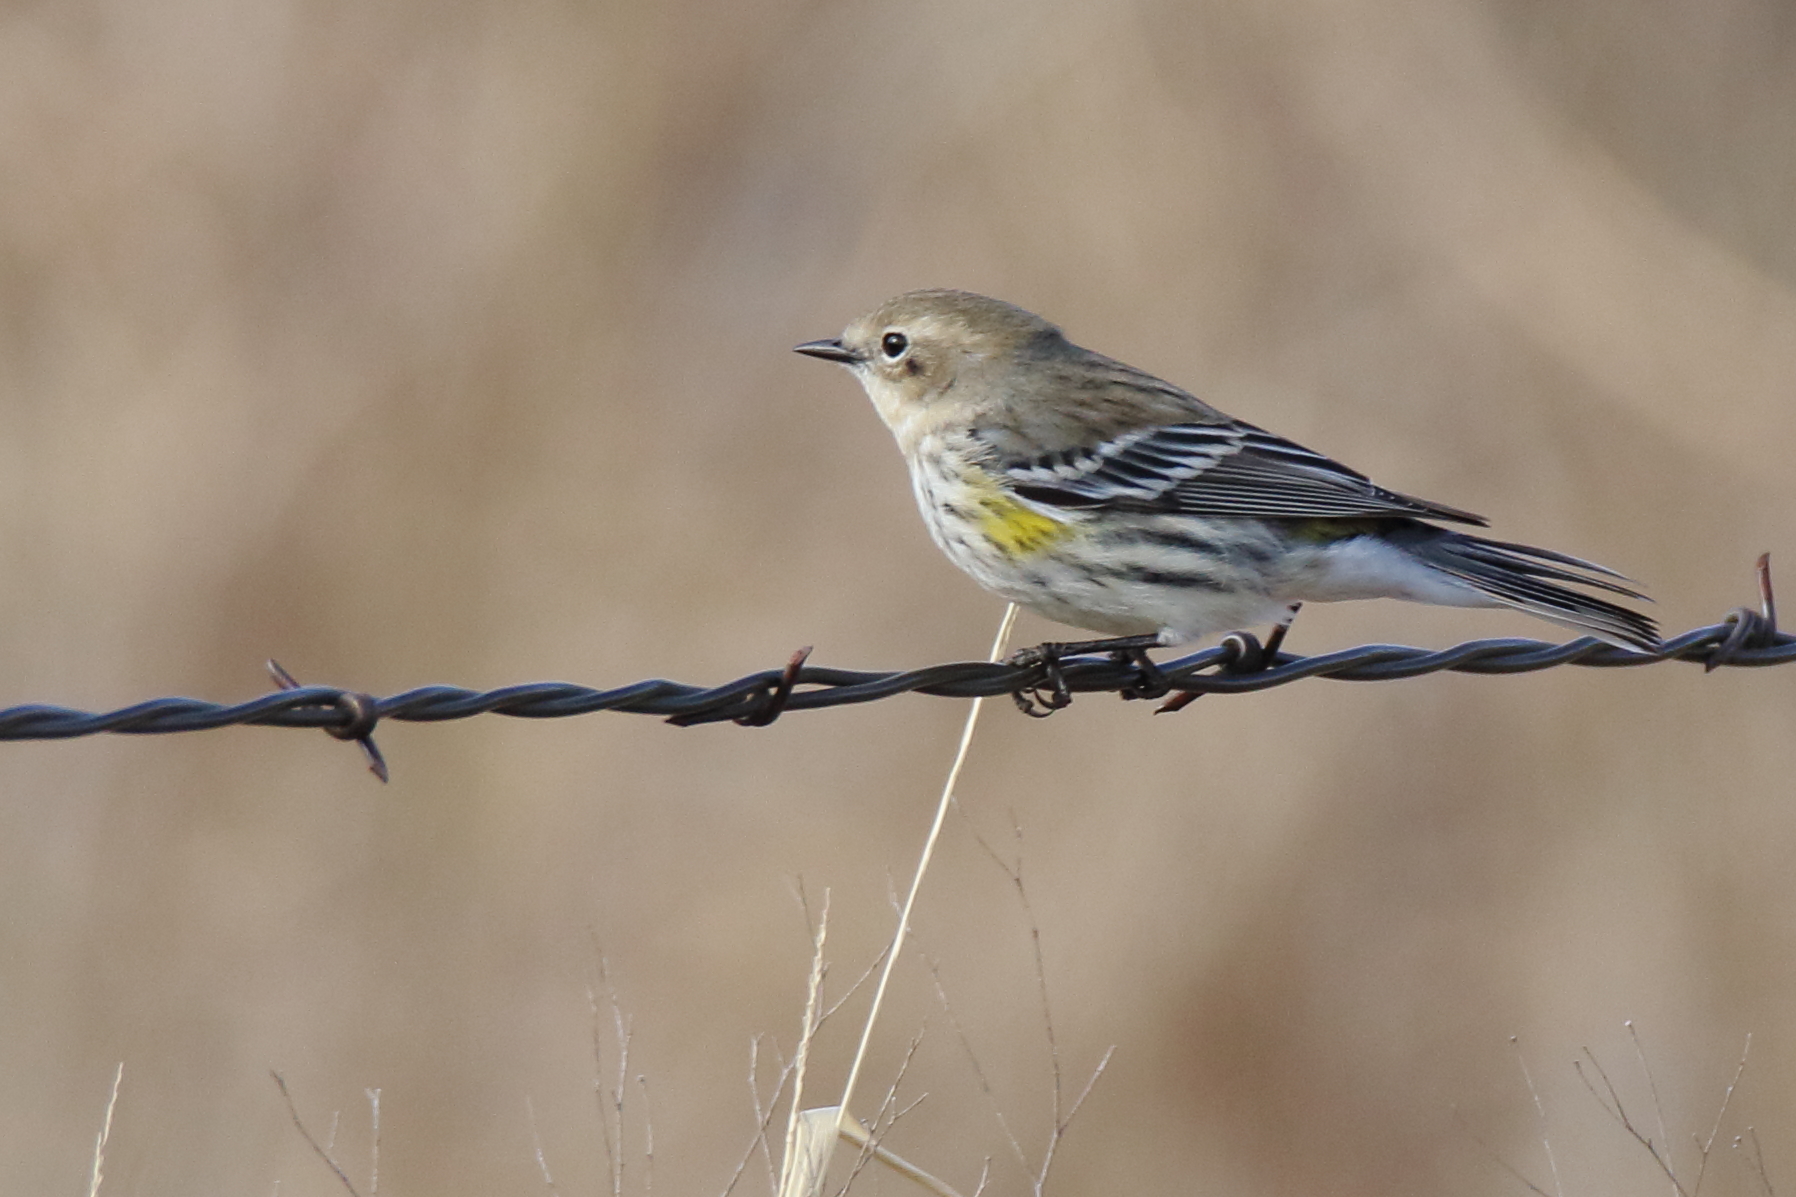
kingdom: Animalia
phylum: Chordata
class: Aves
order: Passeriformes
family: Parulidae
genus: Setophaga
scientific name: Setophaga coronata
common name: Myrtle warbler
